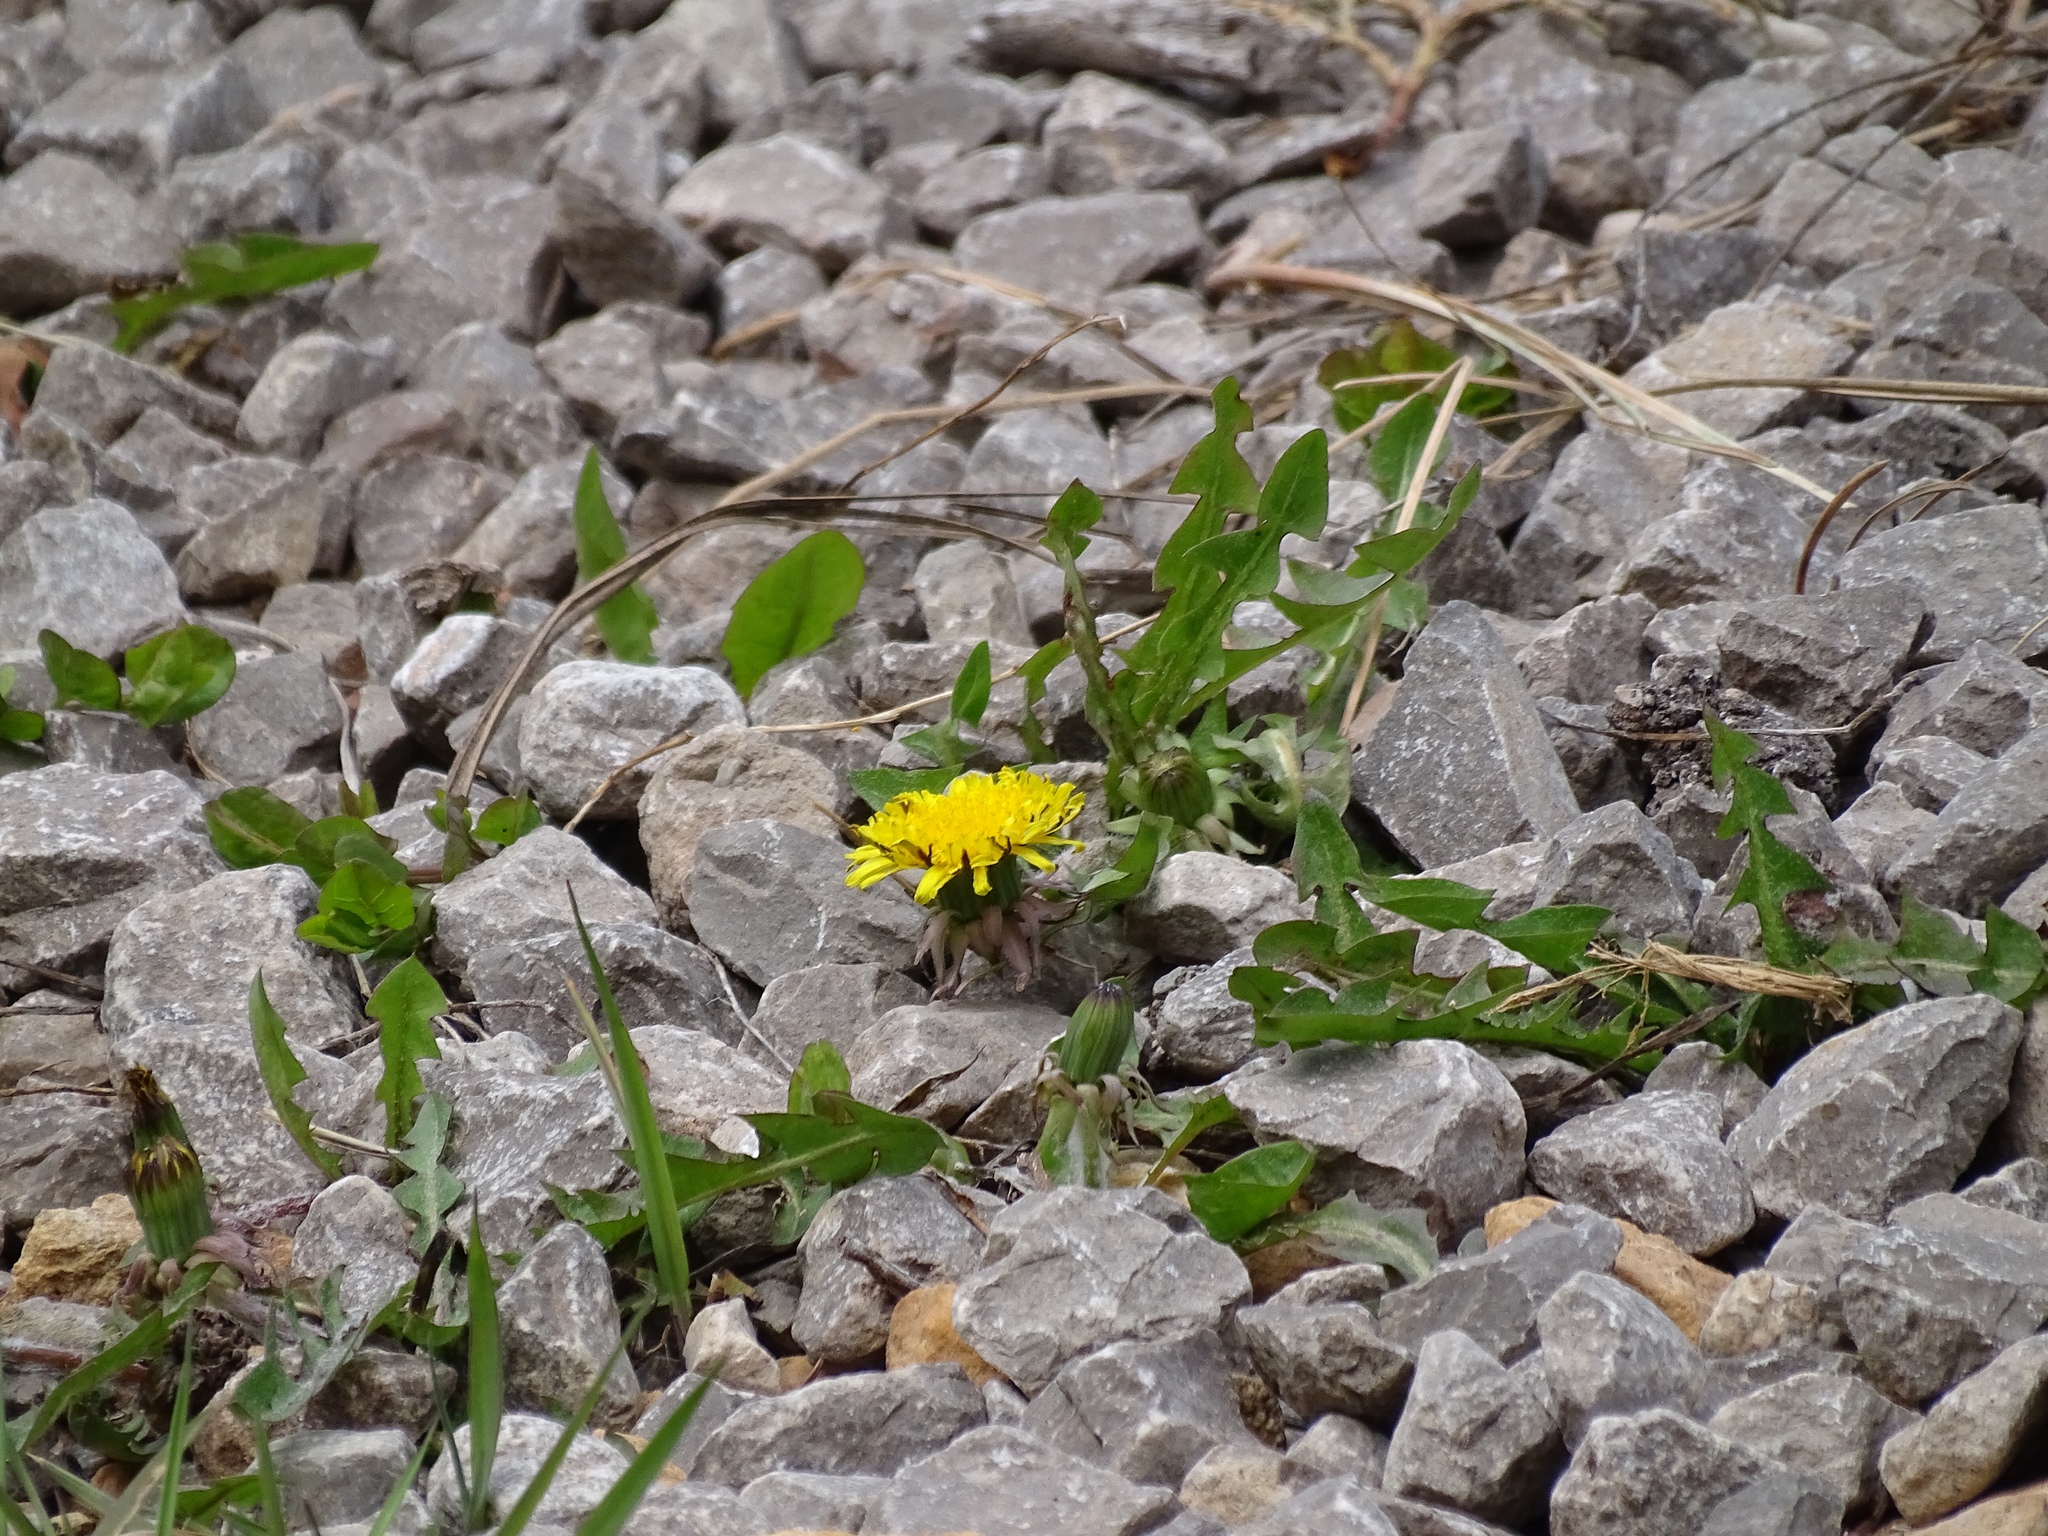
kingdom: Plantae
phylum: Tracheophyta
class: Magnoliopsida
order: Asterales
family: Asteraceae
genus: Taraxacum
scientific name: Taraxacum officinale
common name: Common dandelion
